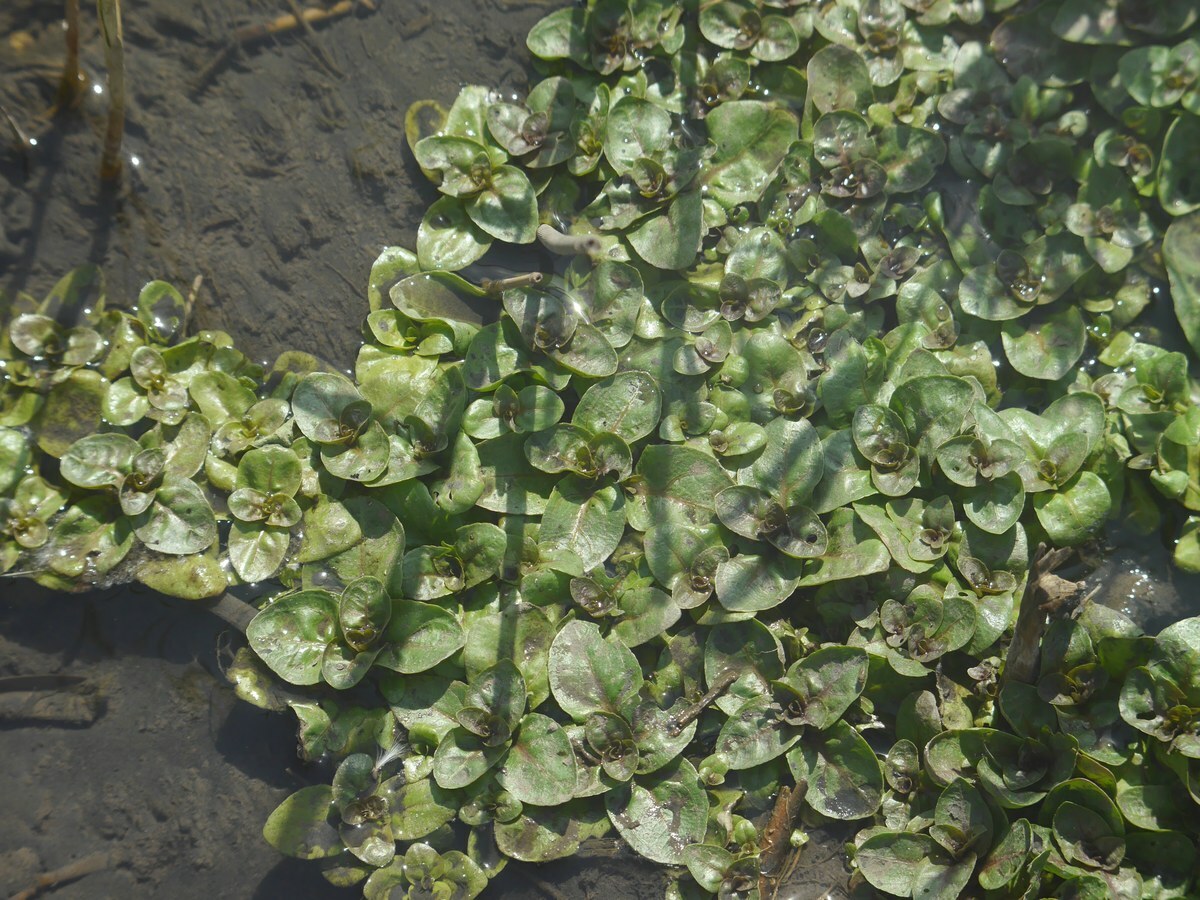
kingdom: Plantae
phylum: Tracheophyta
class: Magnoliopsida
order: Lamiales
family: Plantaginaceae
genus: Veronica
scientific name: Veronica beccabunga
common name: Brooklime
